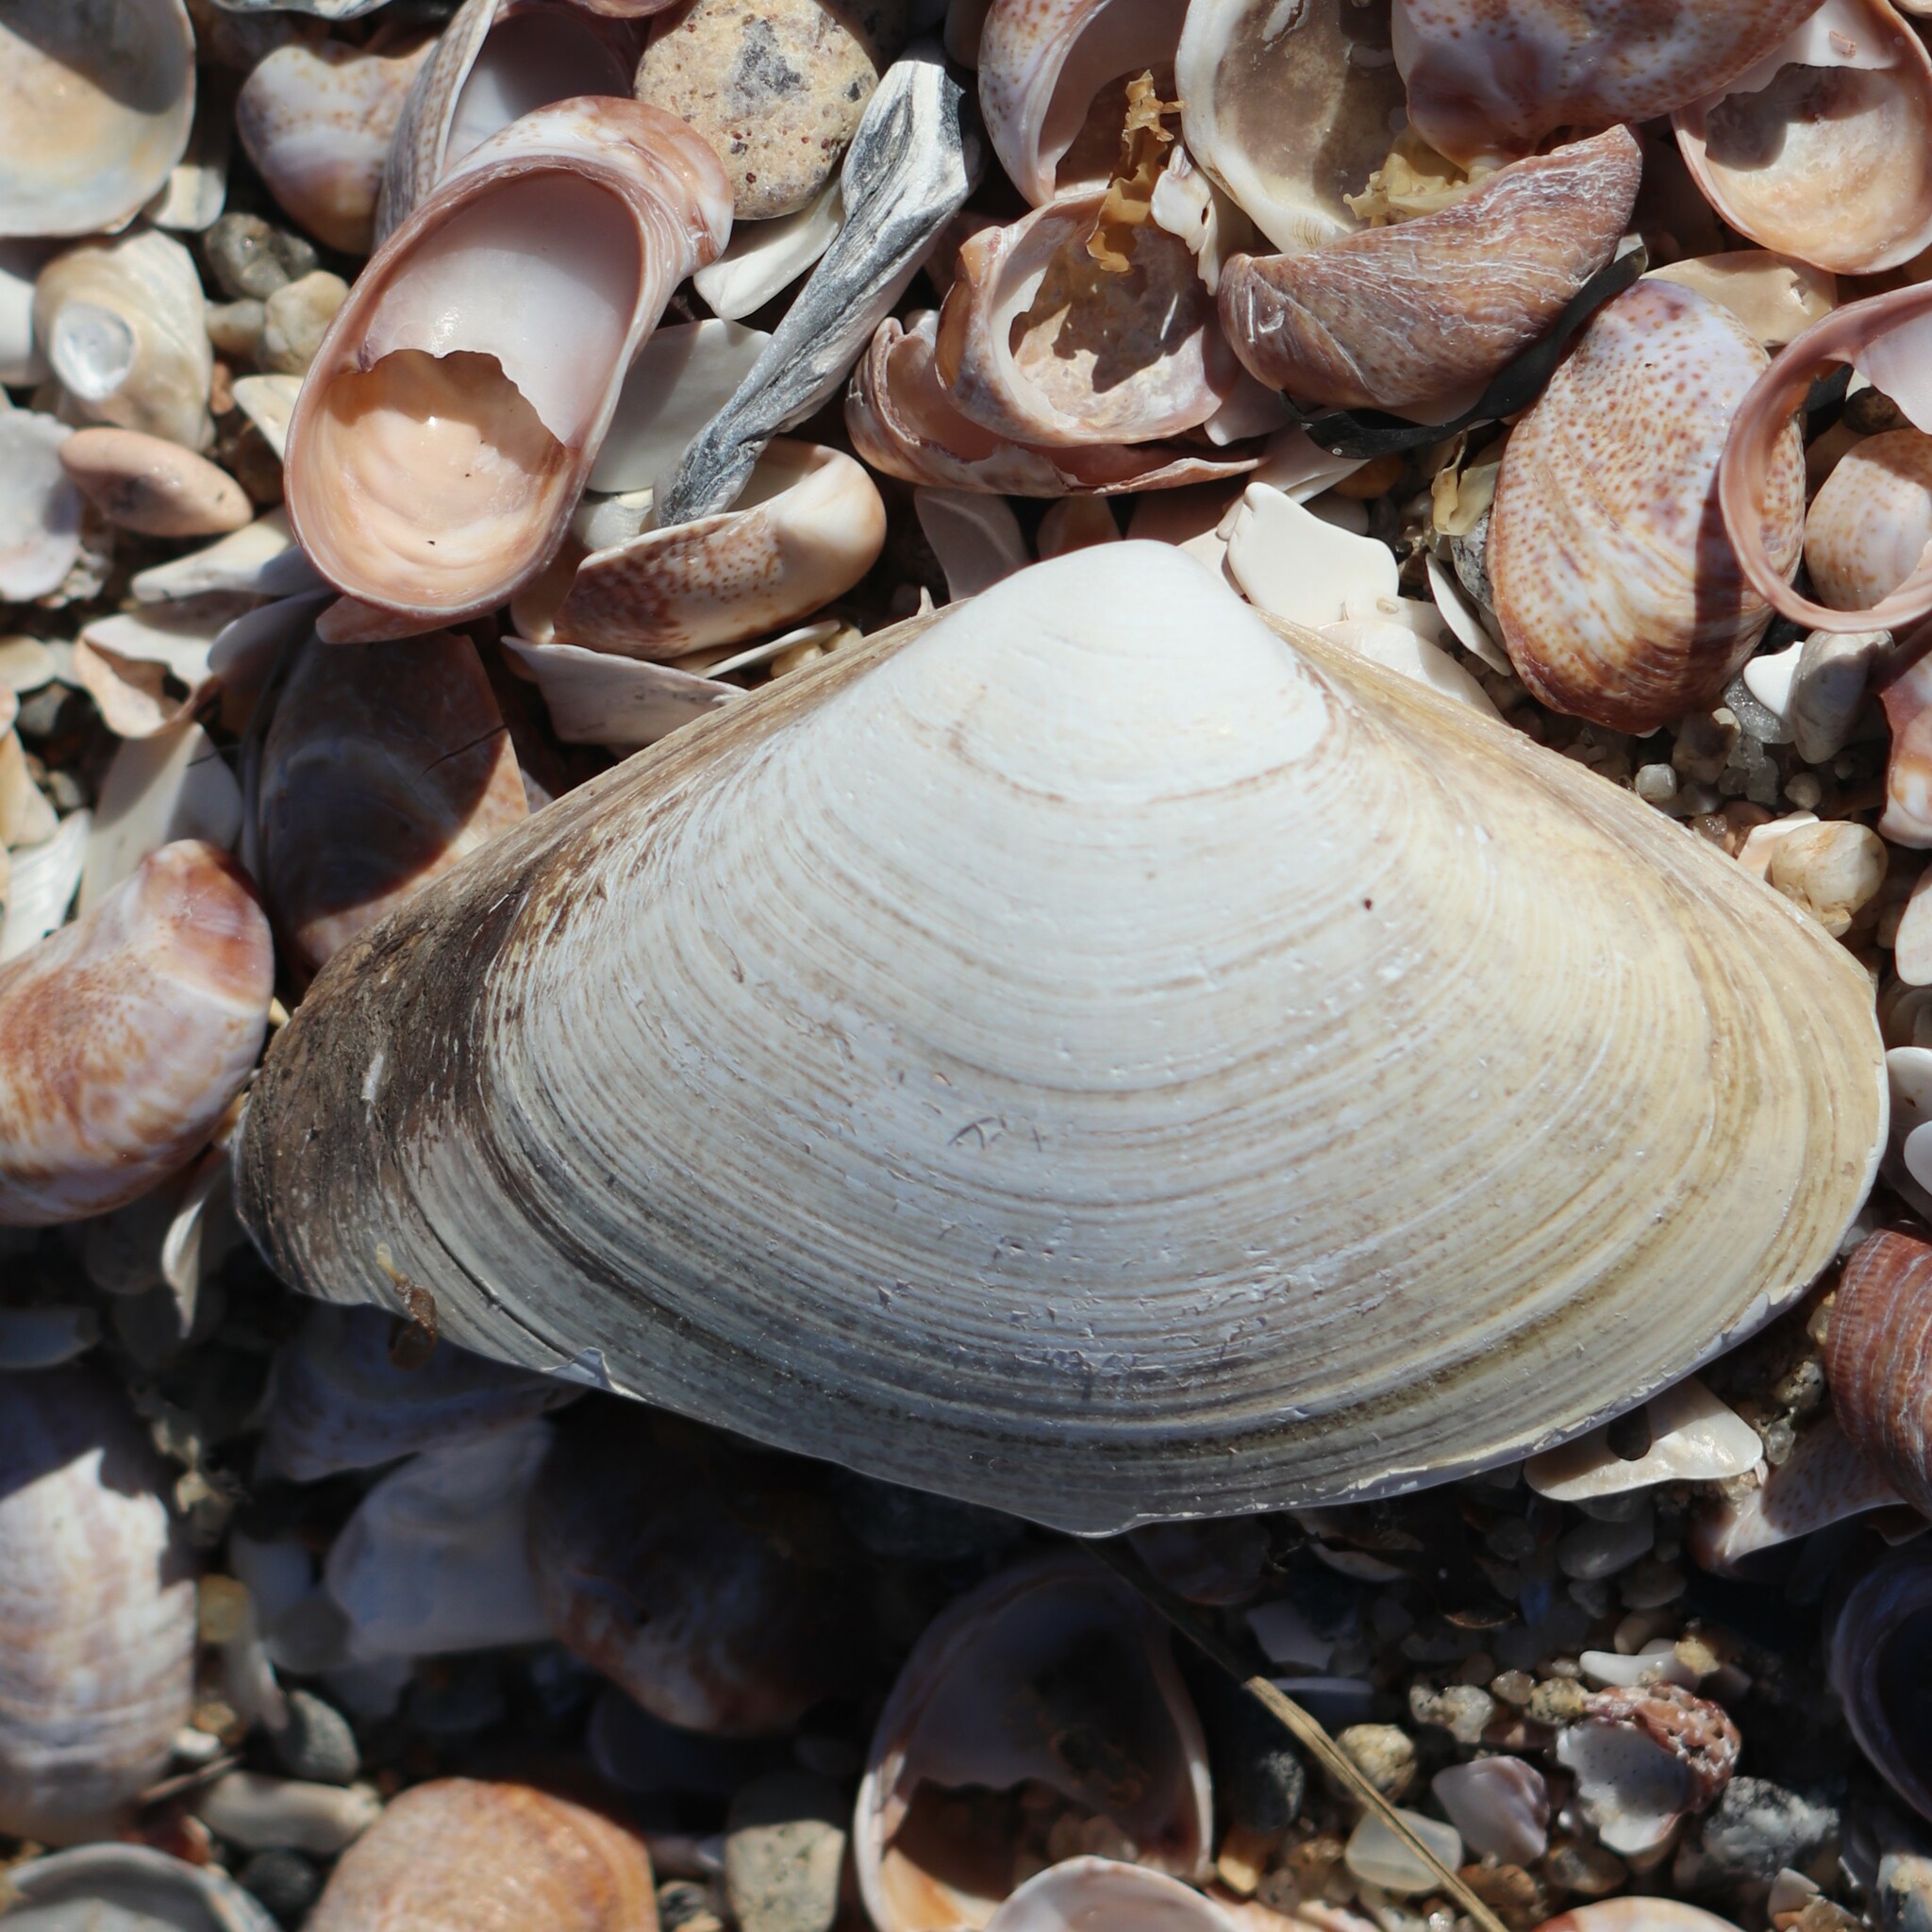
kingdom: Animalia
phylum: Mollusca
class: Bivalvia
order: Venerida
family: Mactridae
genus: Spisula
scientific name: Spisula solidissima
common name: Atlantic surf clam
